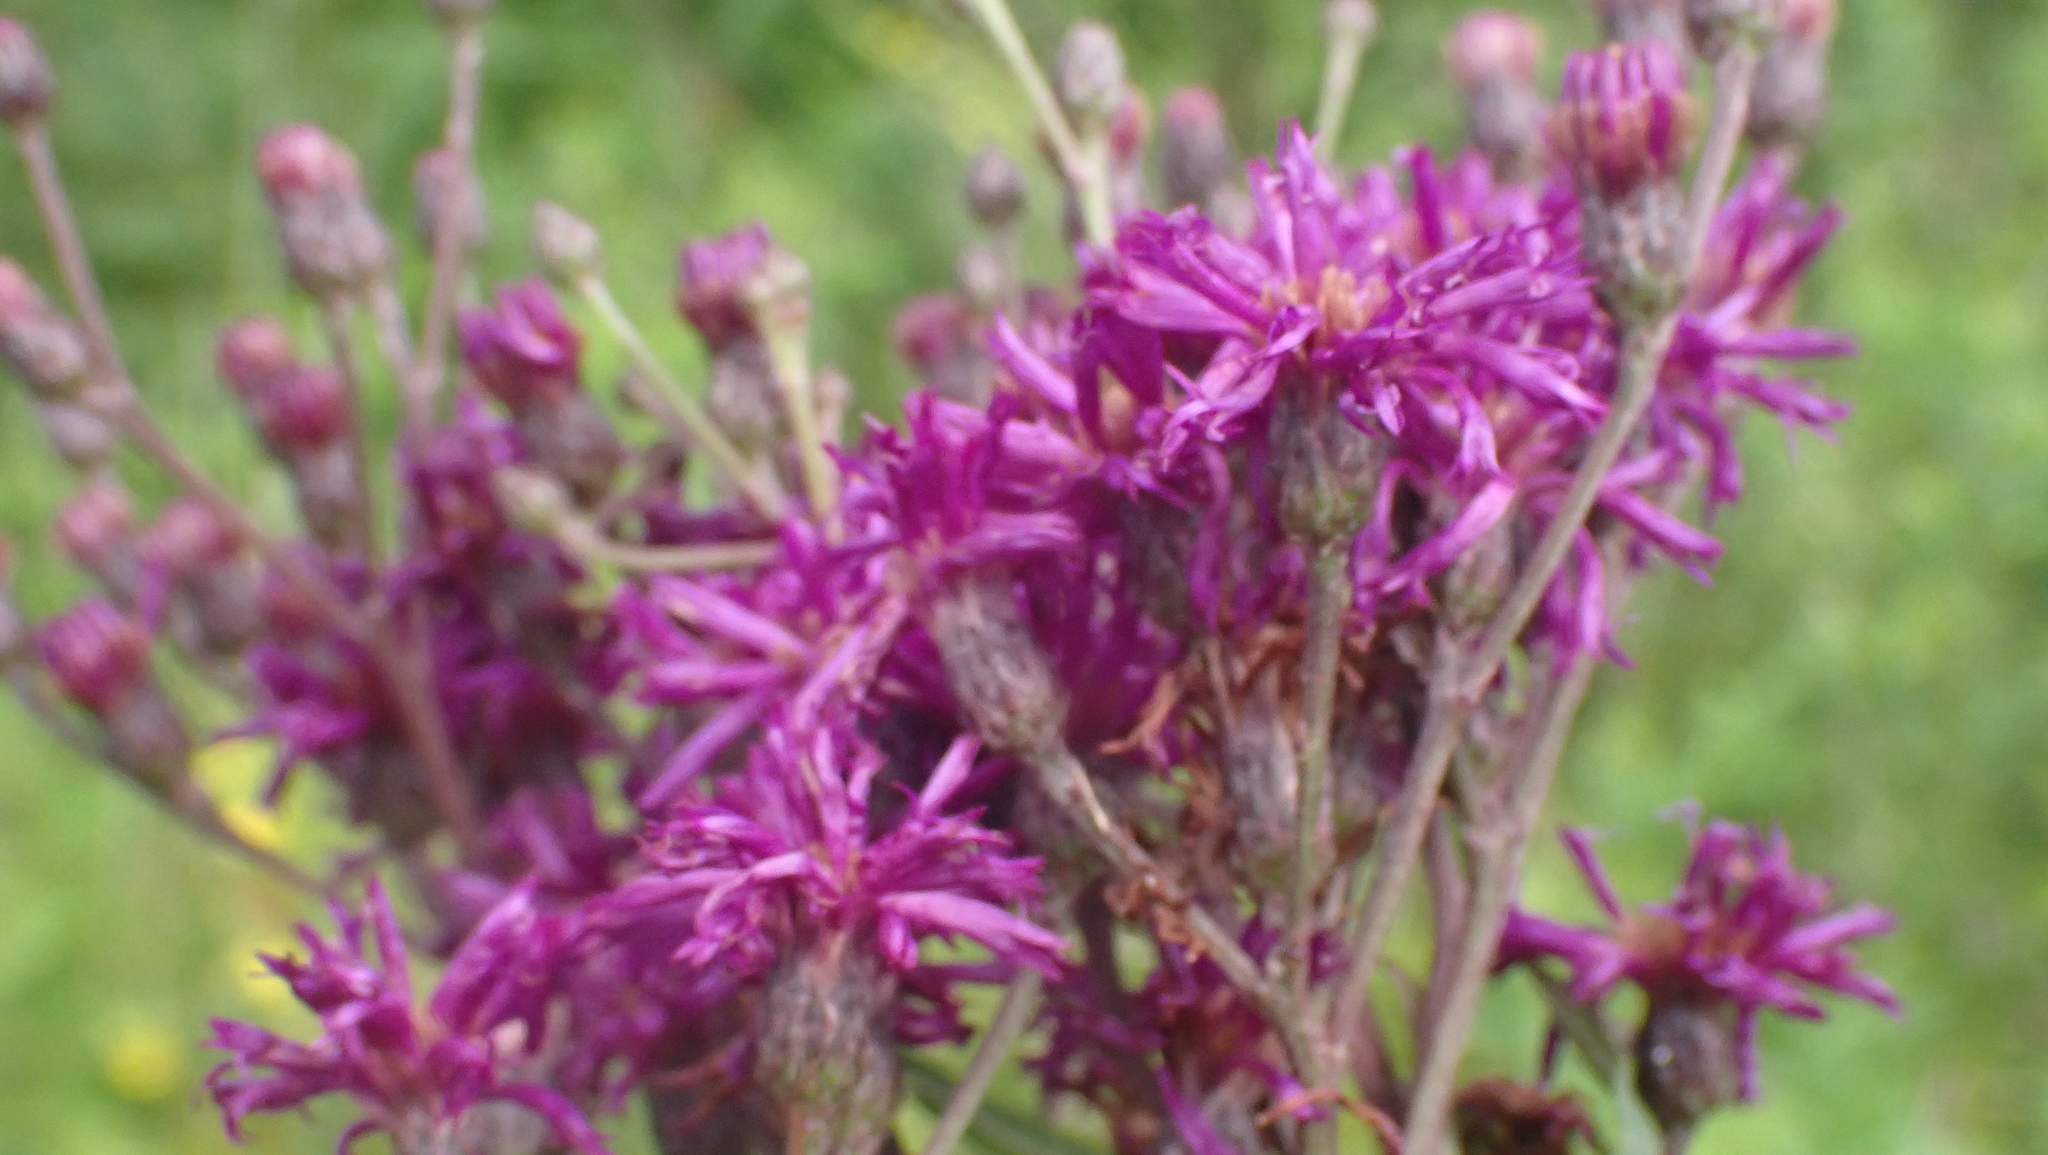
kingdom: Plantae
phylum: Tracheophyta
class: Magnoliopsida
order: Asterales
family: Asteraceae
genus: Vernonia
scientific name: Vernonia gigantea
